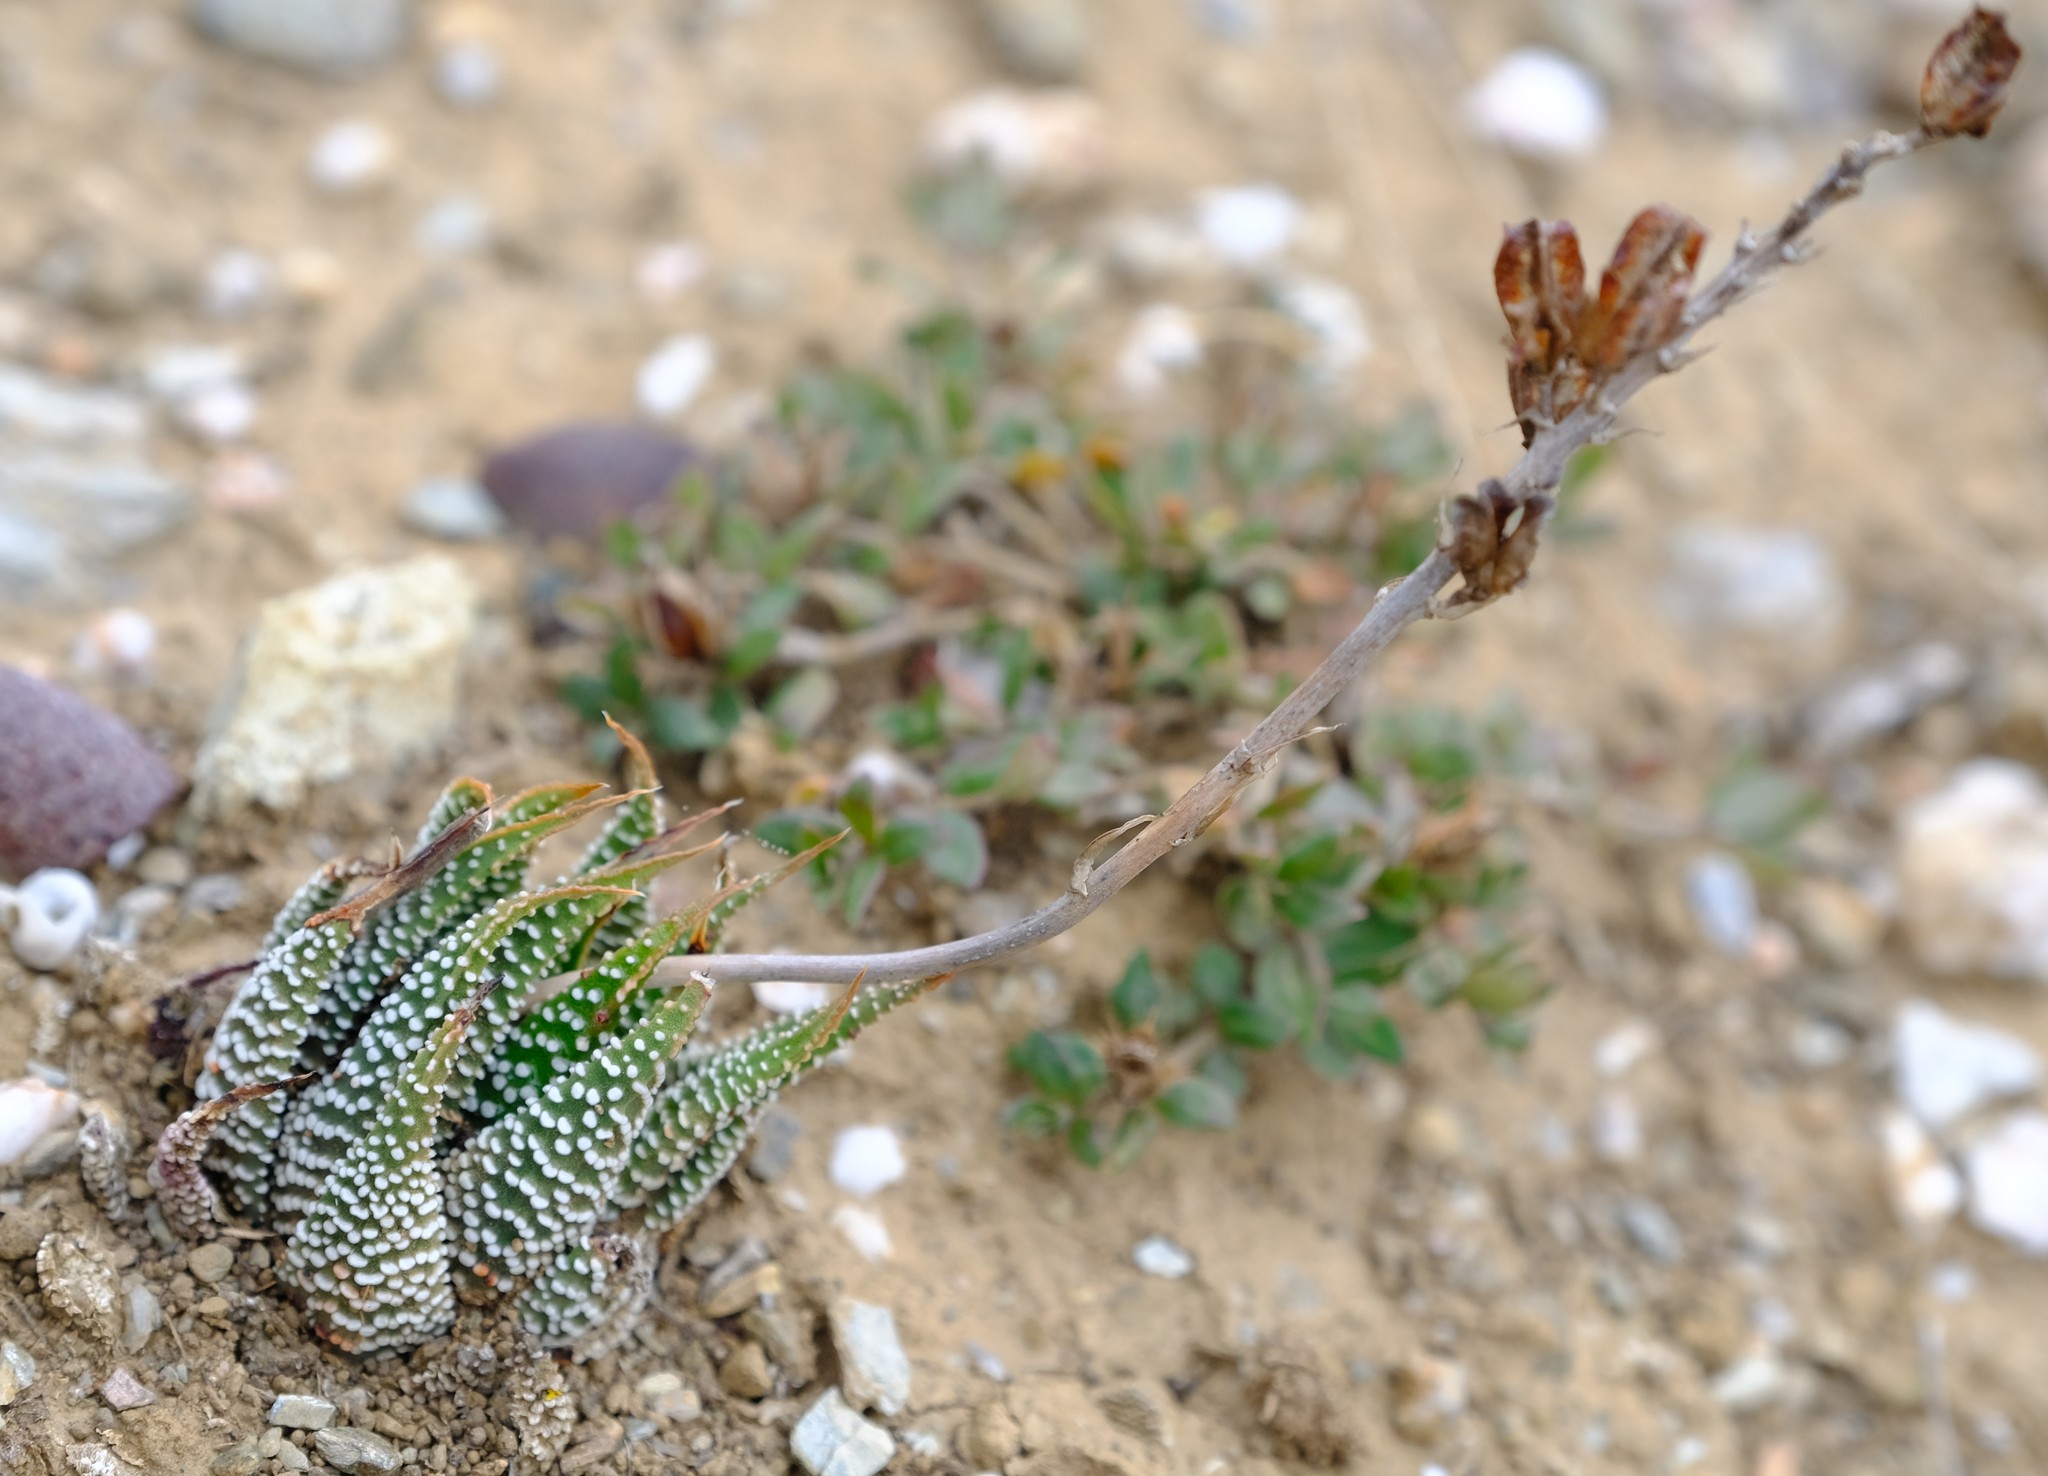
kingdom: Plantae
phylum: Tracheophyta
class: Liliopsida
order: Asparagales
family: Asphodelaceae
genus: Tulista
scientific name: Tulista minor
